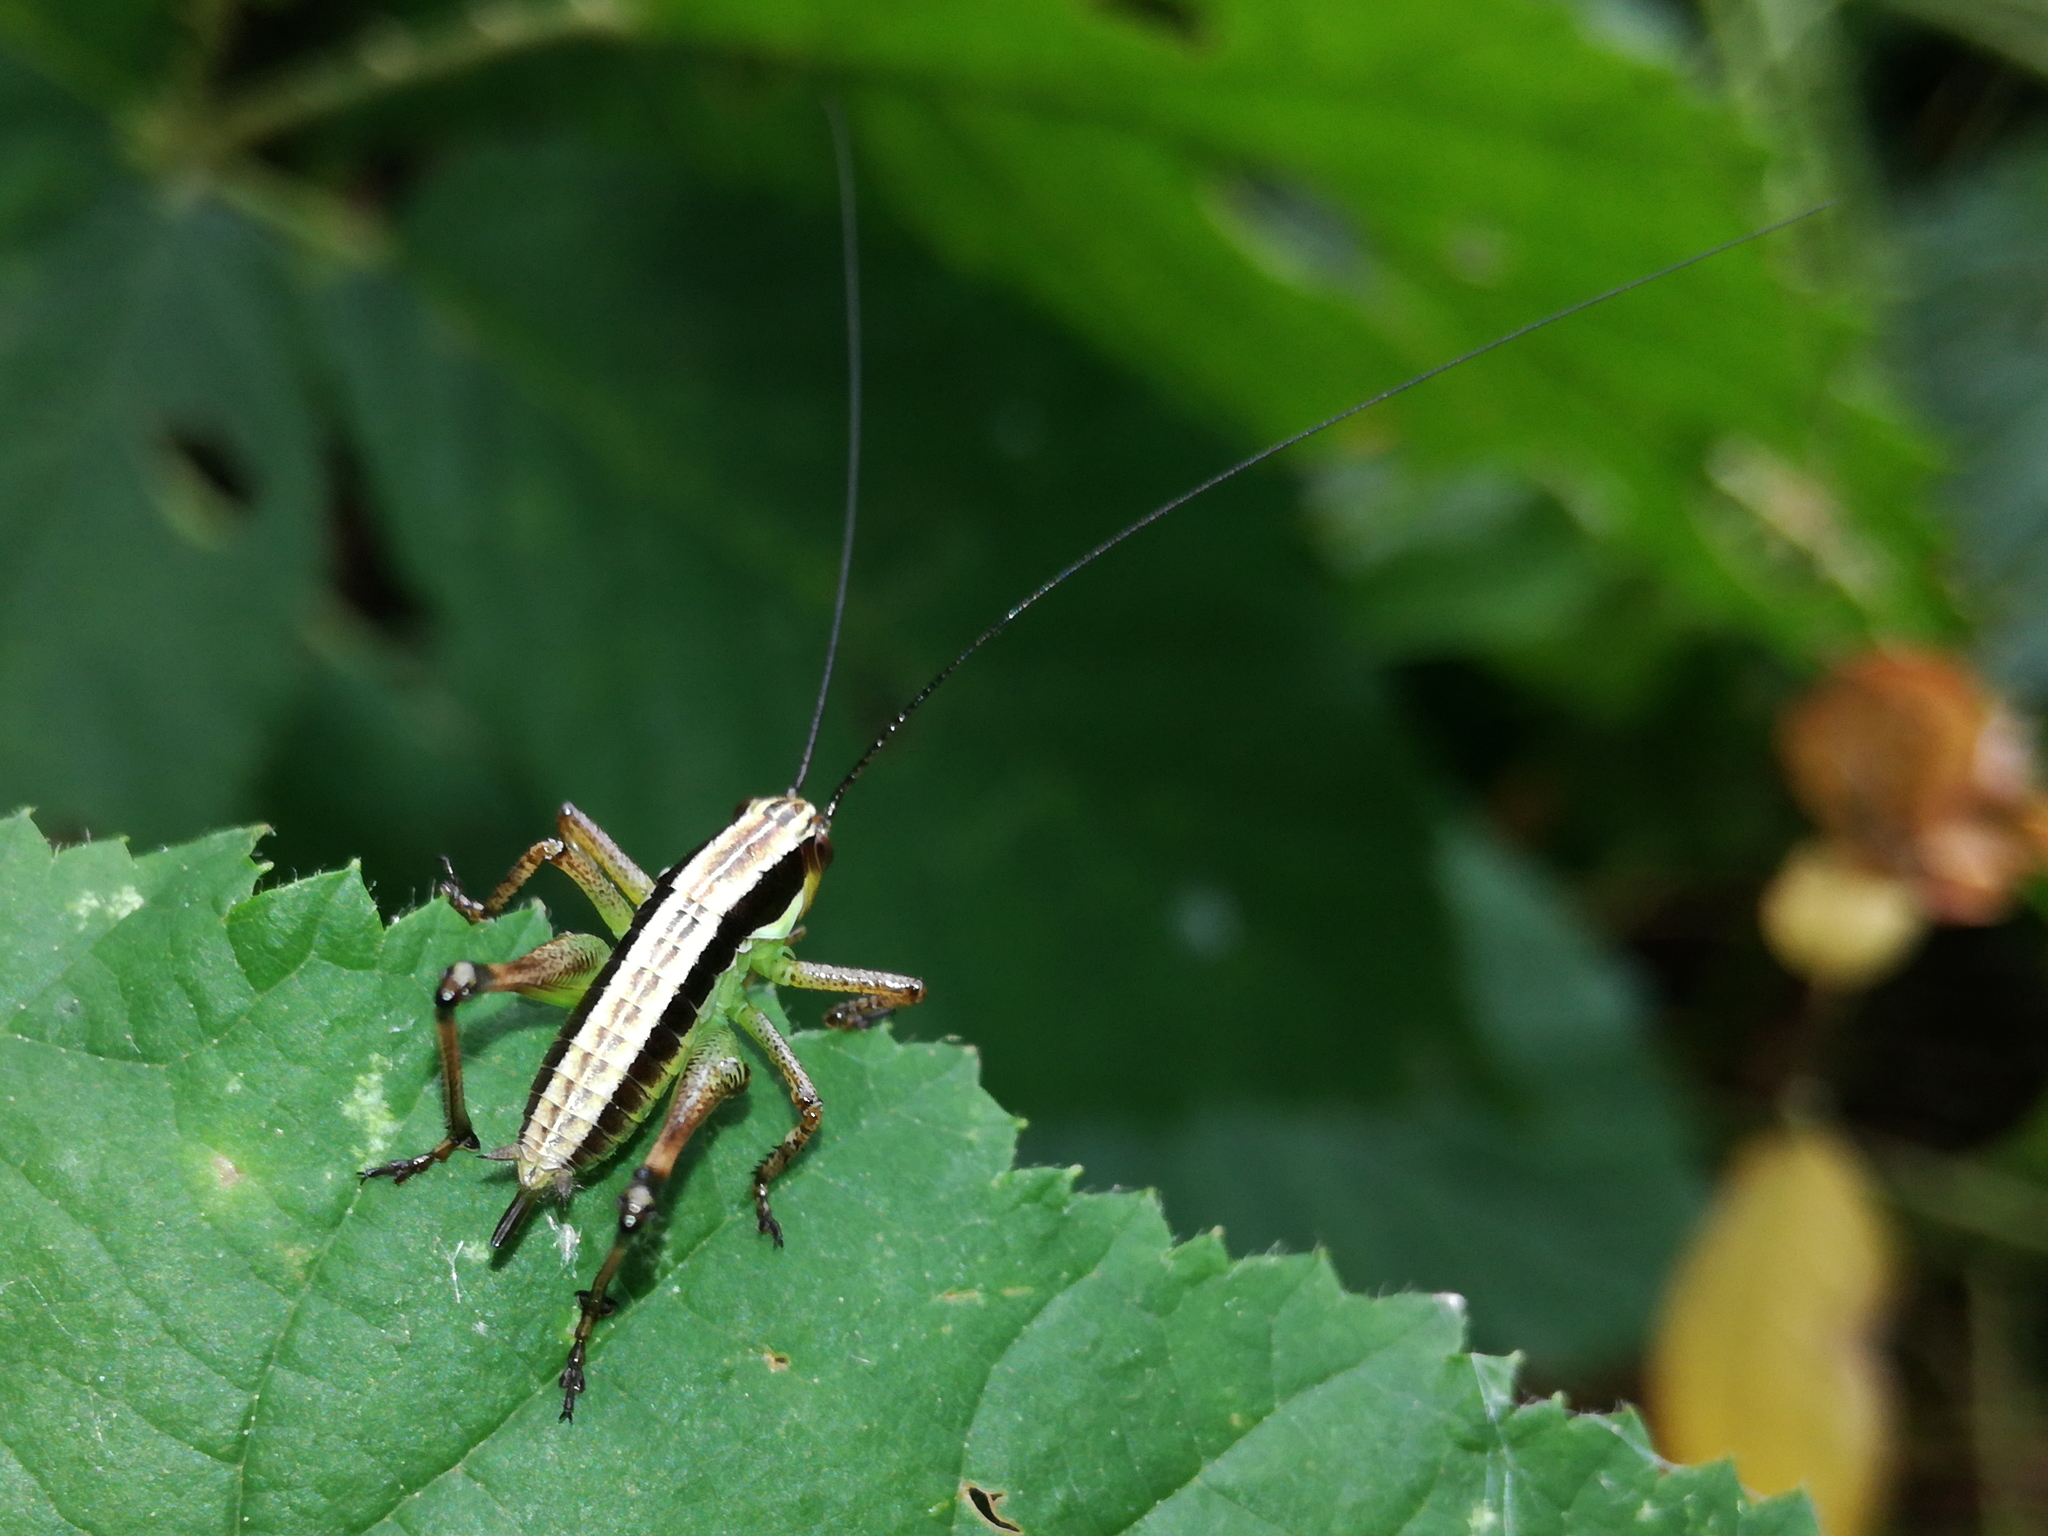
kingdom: Animalia
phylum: Arthropoda
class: Insecta
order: Orthoptera
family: Tettigoniidae
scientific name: Tettigoniidae
